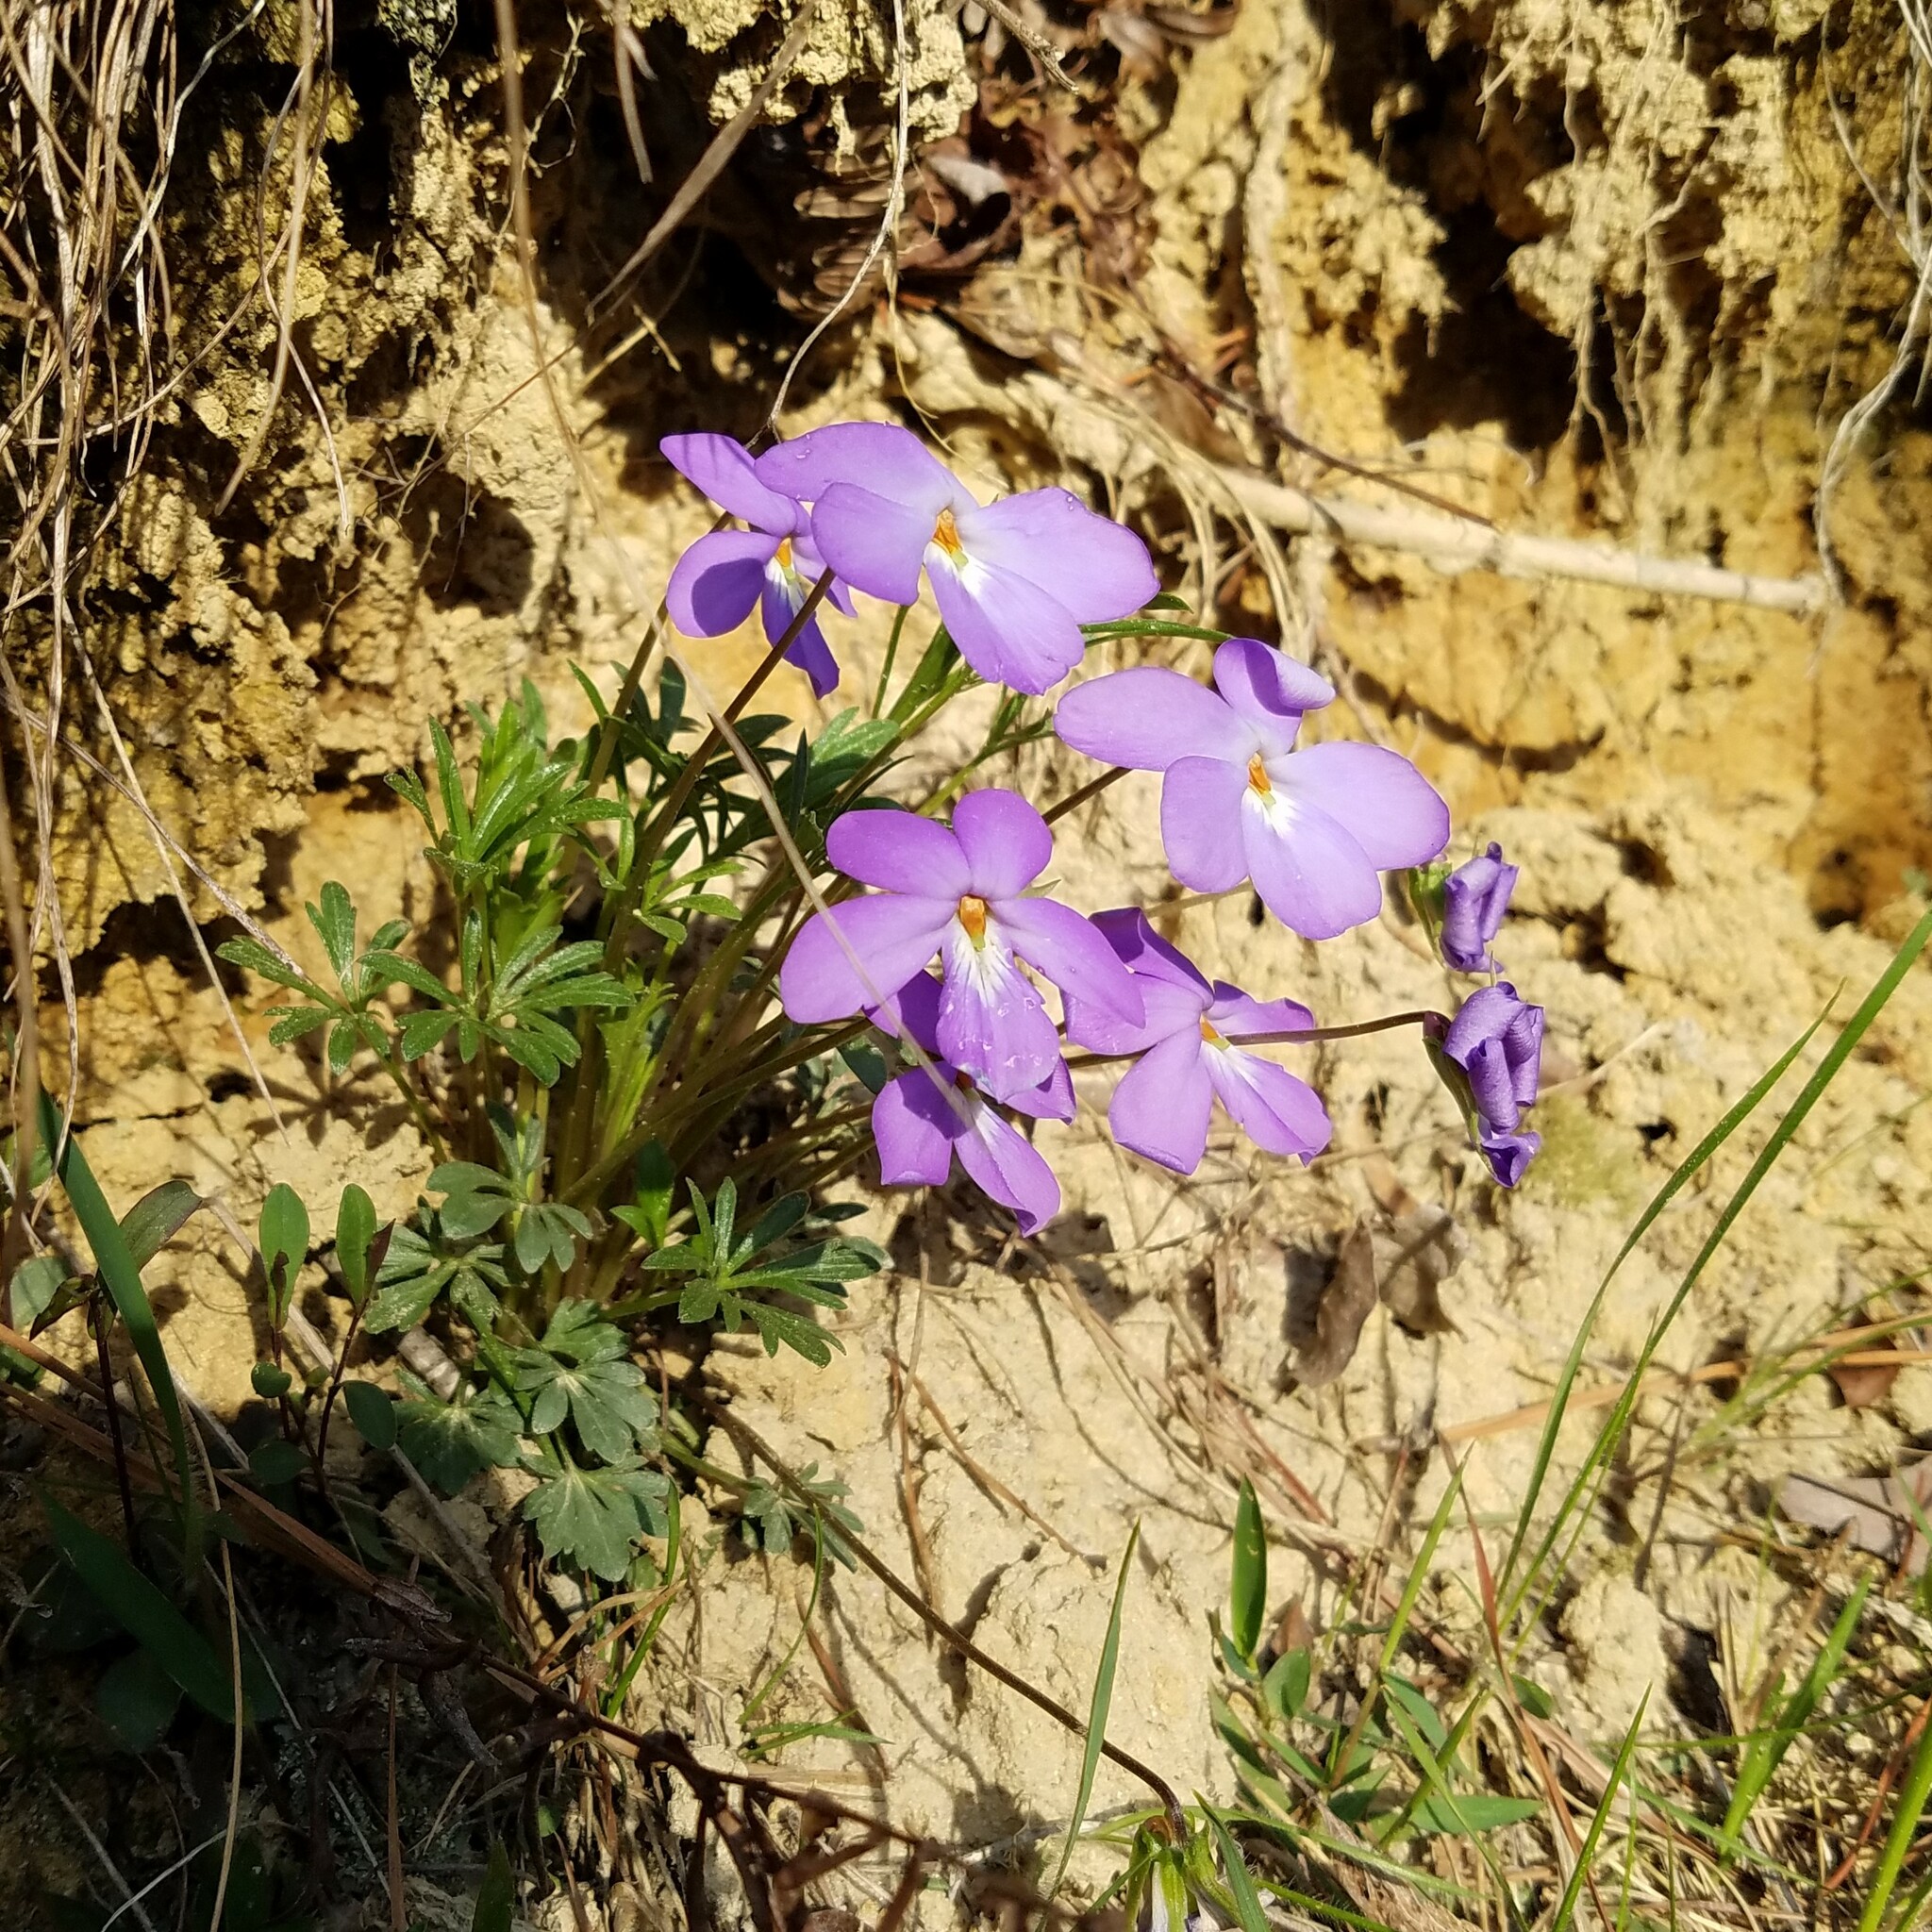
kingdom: Plantae
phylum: Tracheophyta
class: Magnoliopsida
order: Malpighiales
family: Violaceae
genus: Viola
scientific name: Viola pedata
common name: Pansy violet
